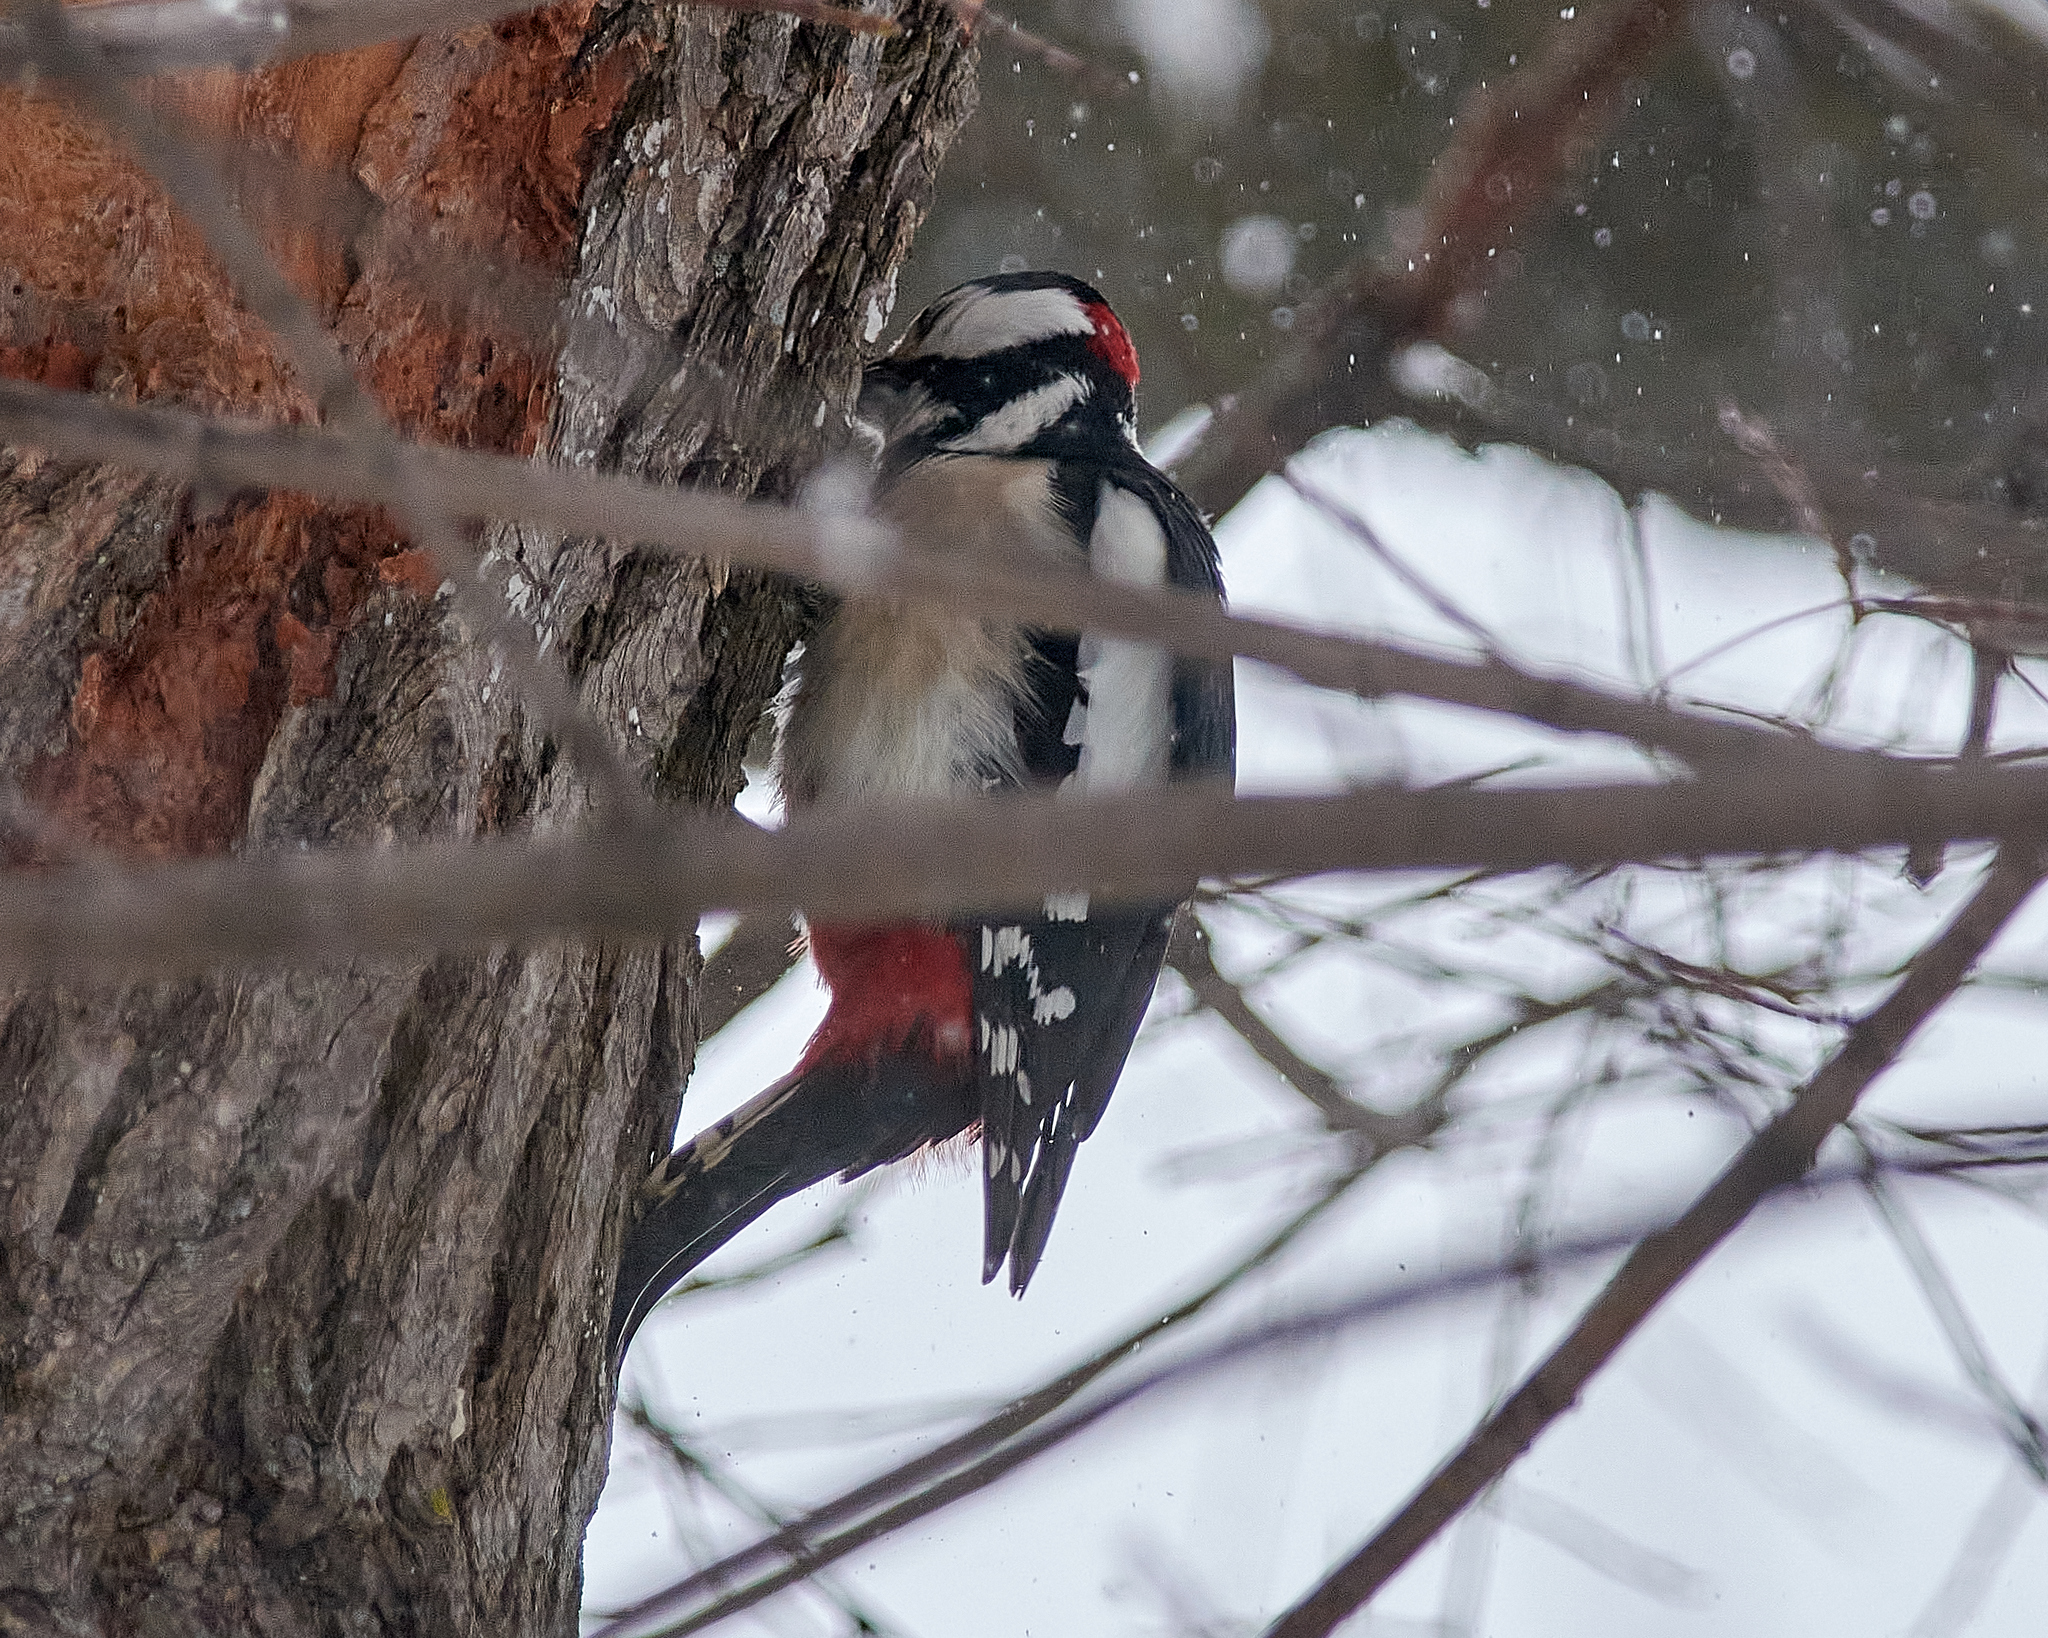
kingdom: Animalia
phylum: Chordata
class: Aves
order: Piciformes
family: Picidae
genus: Dendrocopos
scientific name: Dendrocopos major
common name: Great spotted woodpecker
